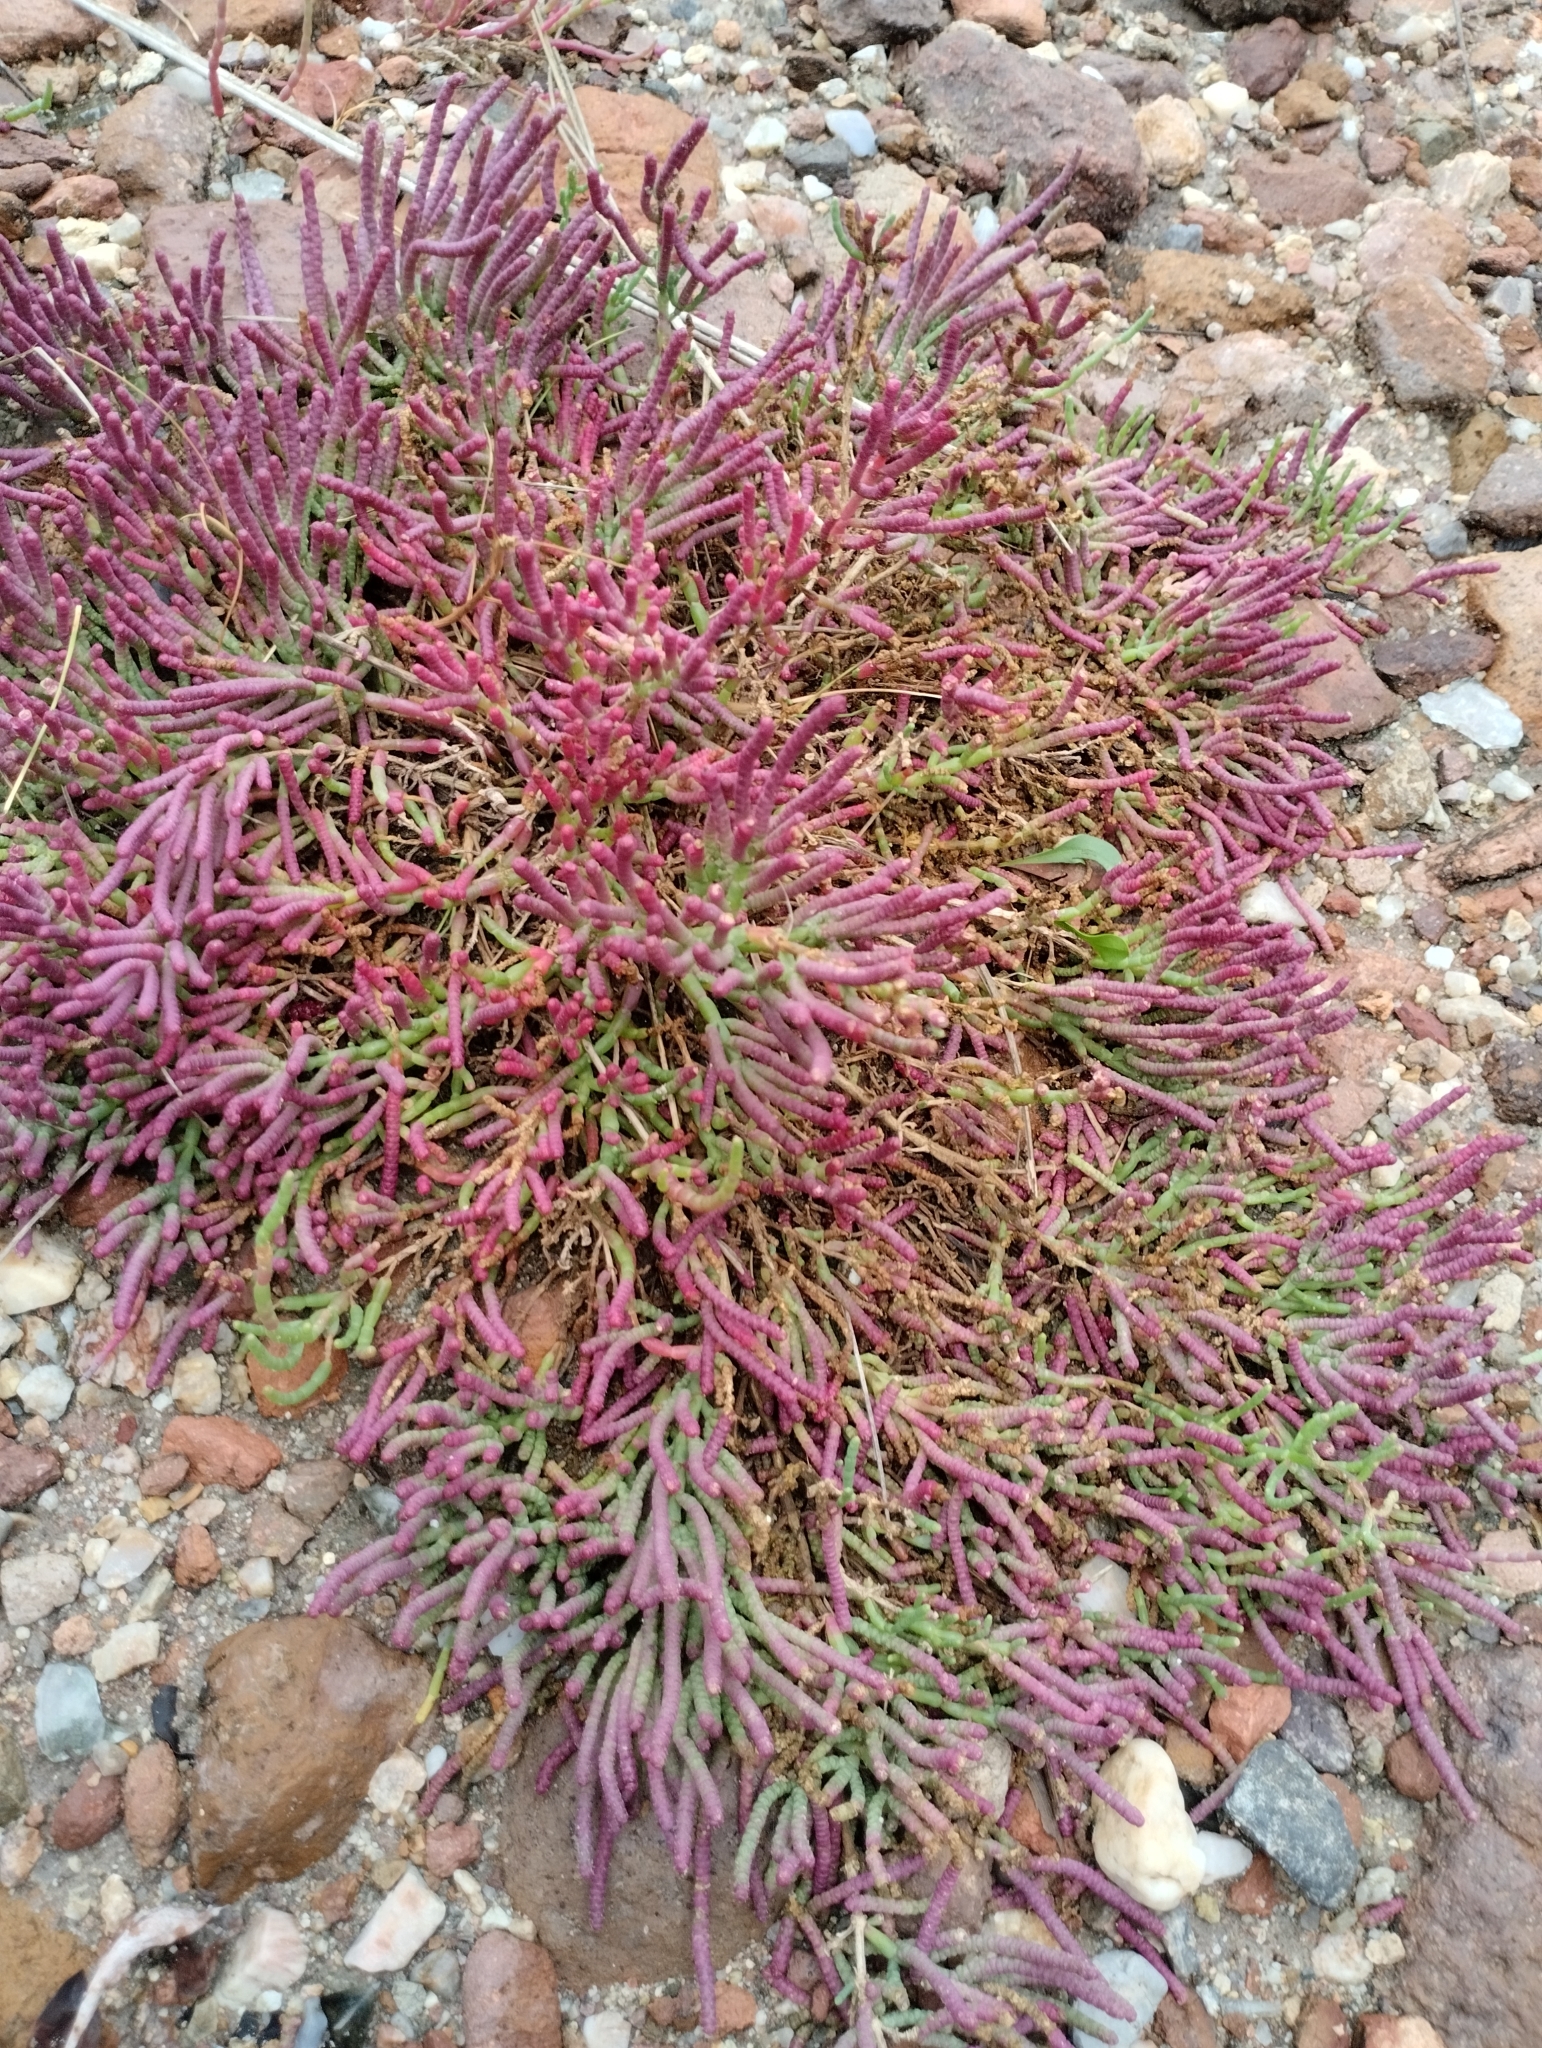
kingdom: Plantae
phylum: Tracheophyta
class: Magnoliopsida
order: Caryophyllales
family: Amaranthaceae
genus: Salicornia
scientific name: Salicornia ambigua
